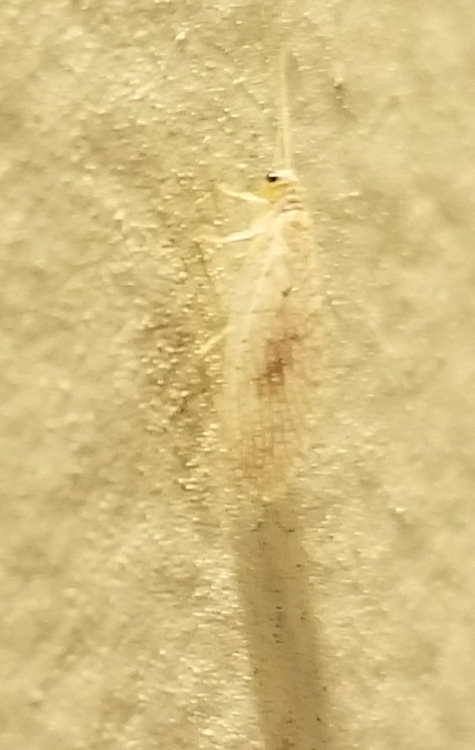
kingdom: Animalia
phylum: Arthropoda
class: Insecta
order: Neuroptera
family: Hemerobiidae
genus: Micromus
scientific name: Micromus subanticus
